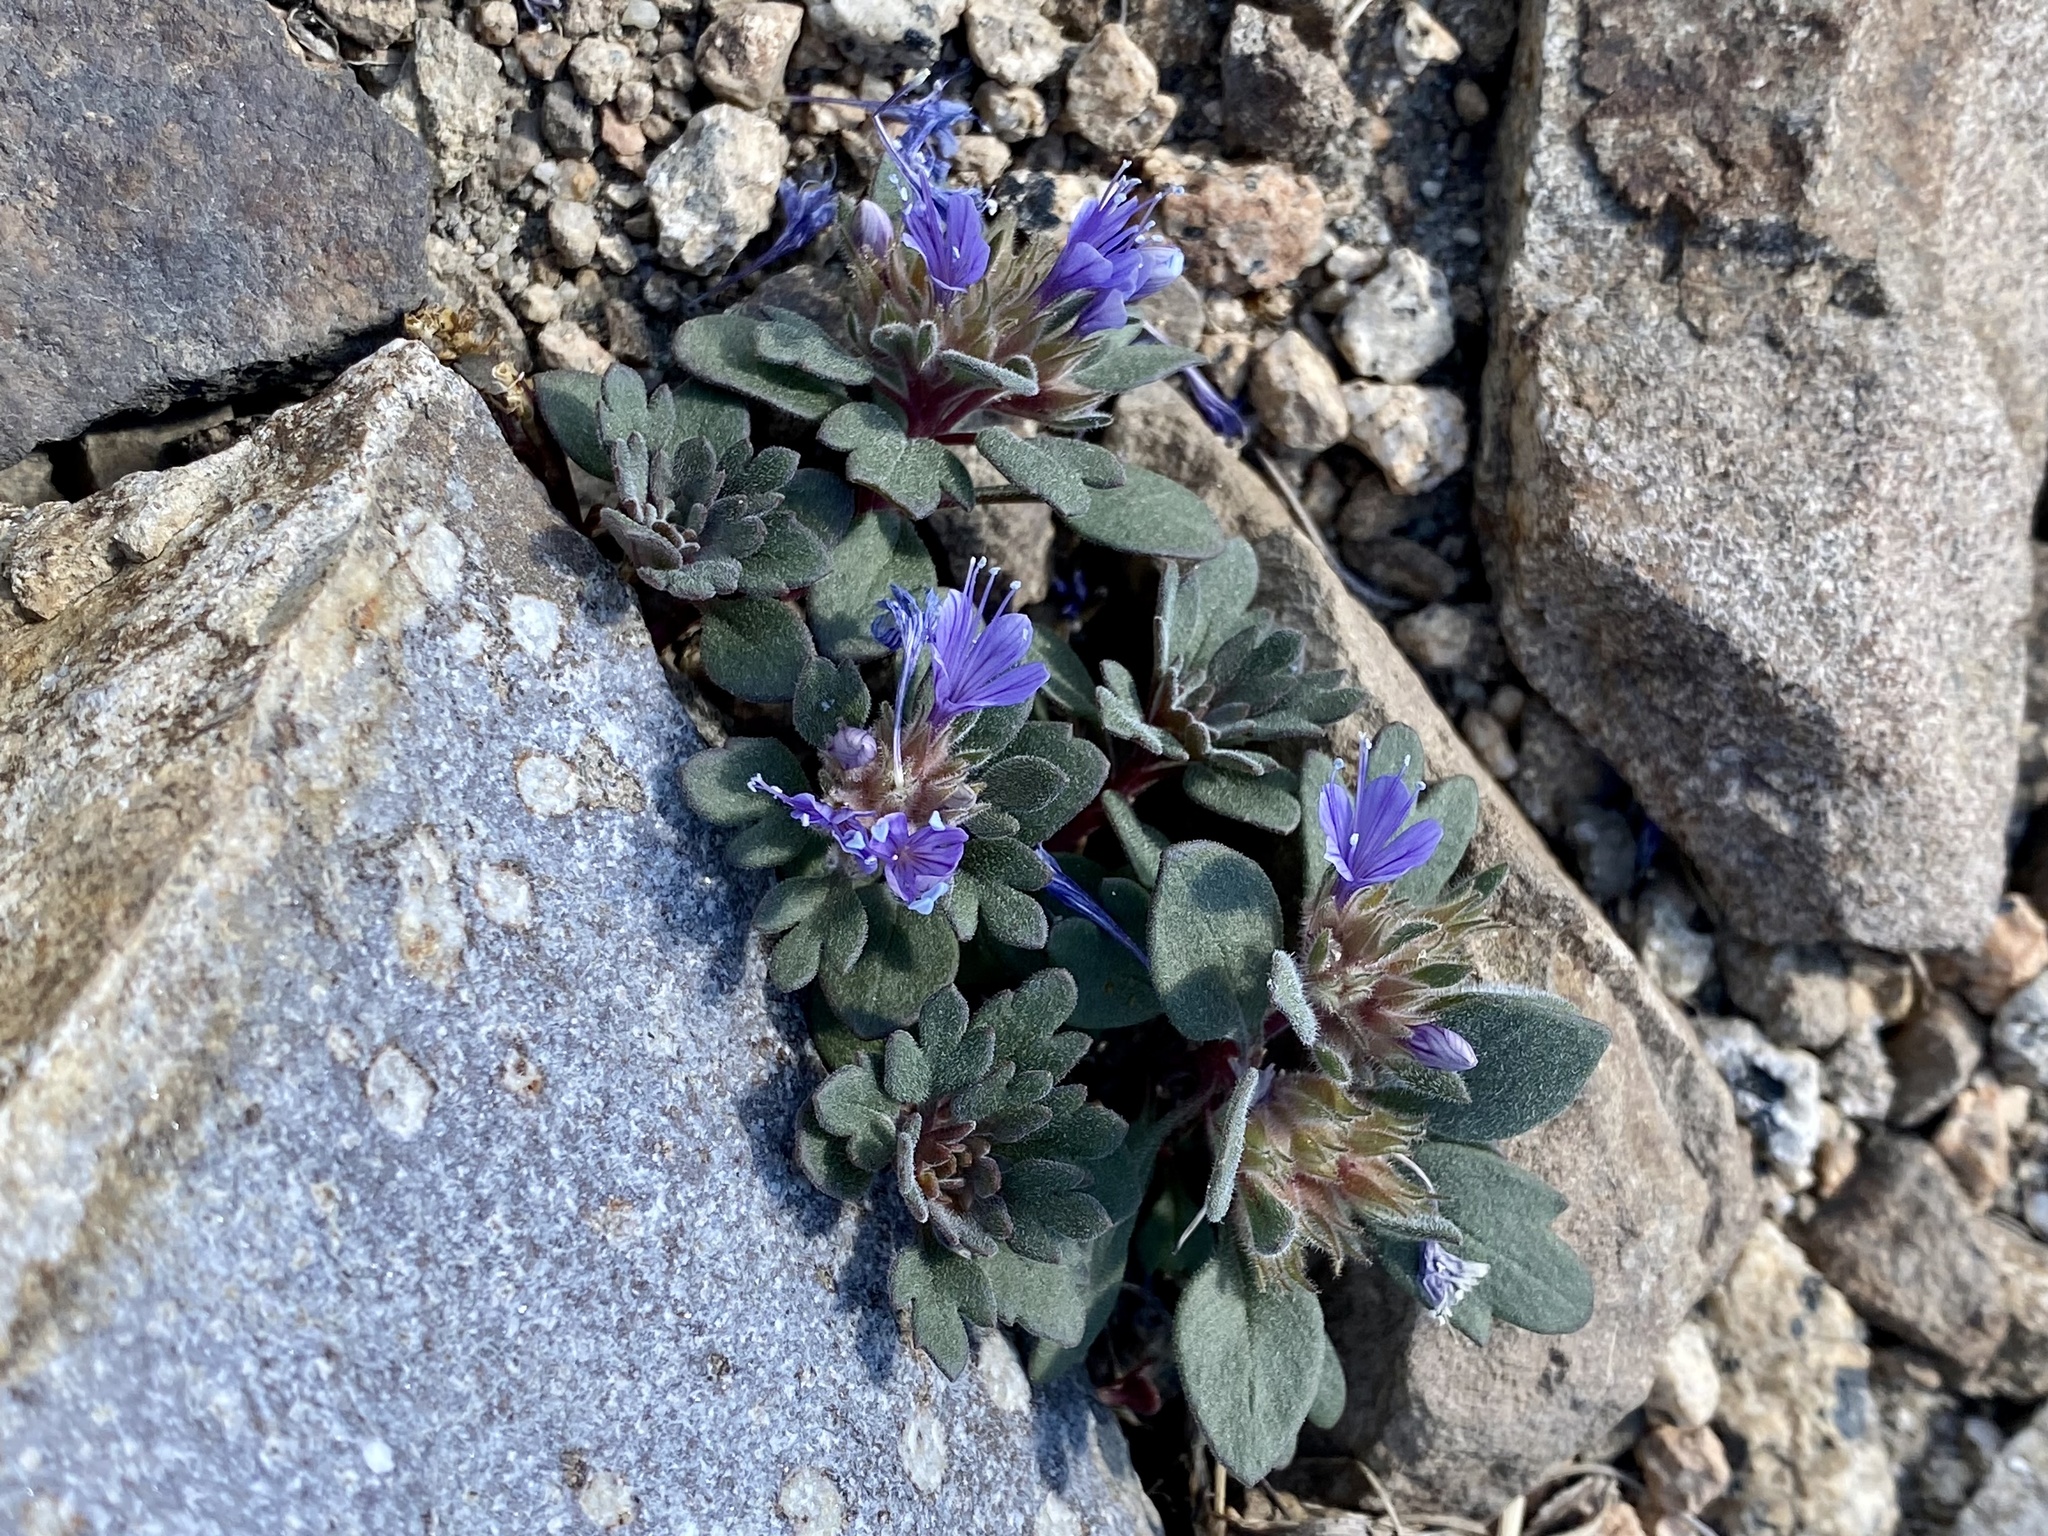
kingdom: Plantae
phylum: Tracheophyta
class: Magnoliopsida
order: Ericales
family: Polemoniaceae
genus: Collomia
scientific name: Collomia debilis
